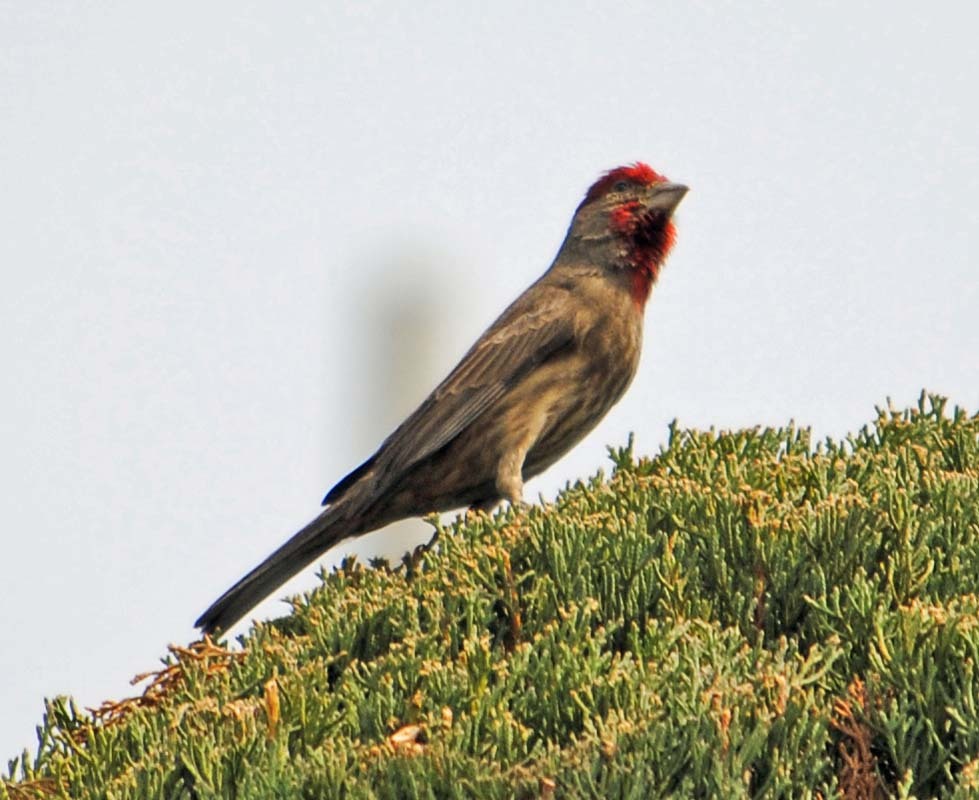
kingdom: Animalia
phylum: Chordata
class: Aves
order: Passeriformes
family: Fringillidae
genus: Haemorhous
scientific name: Haemorhous mexicanus
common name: House finch
